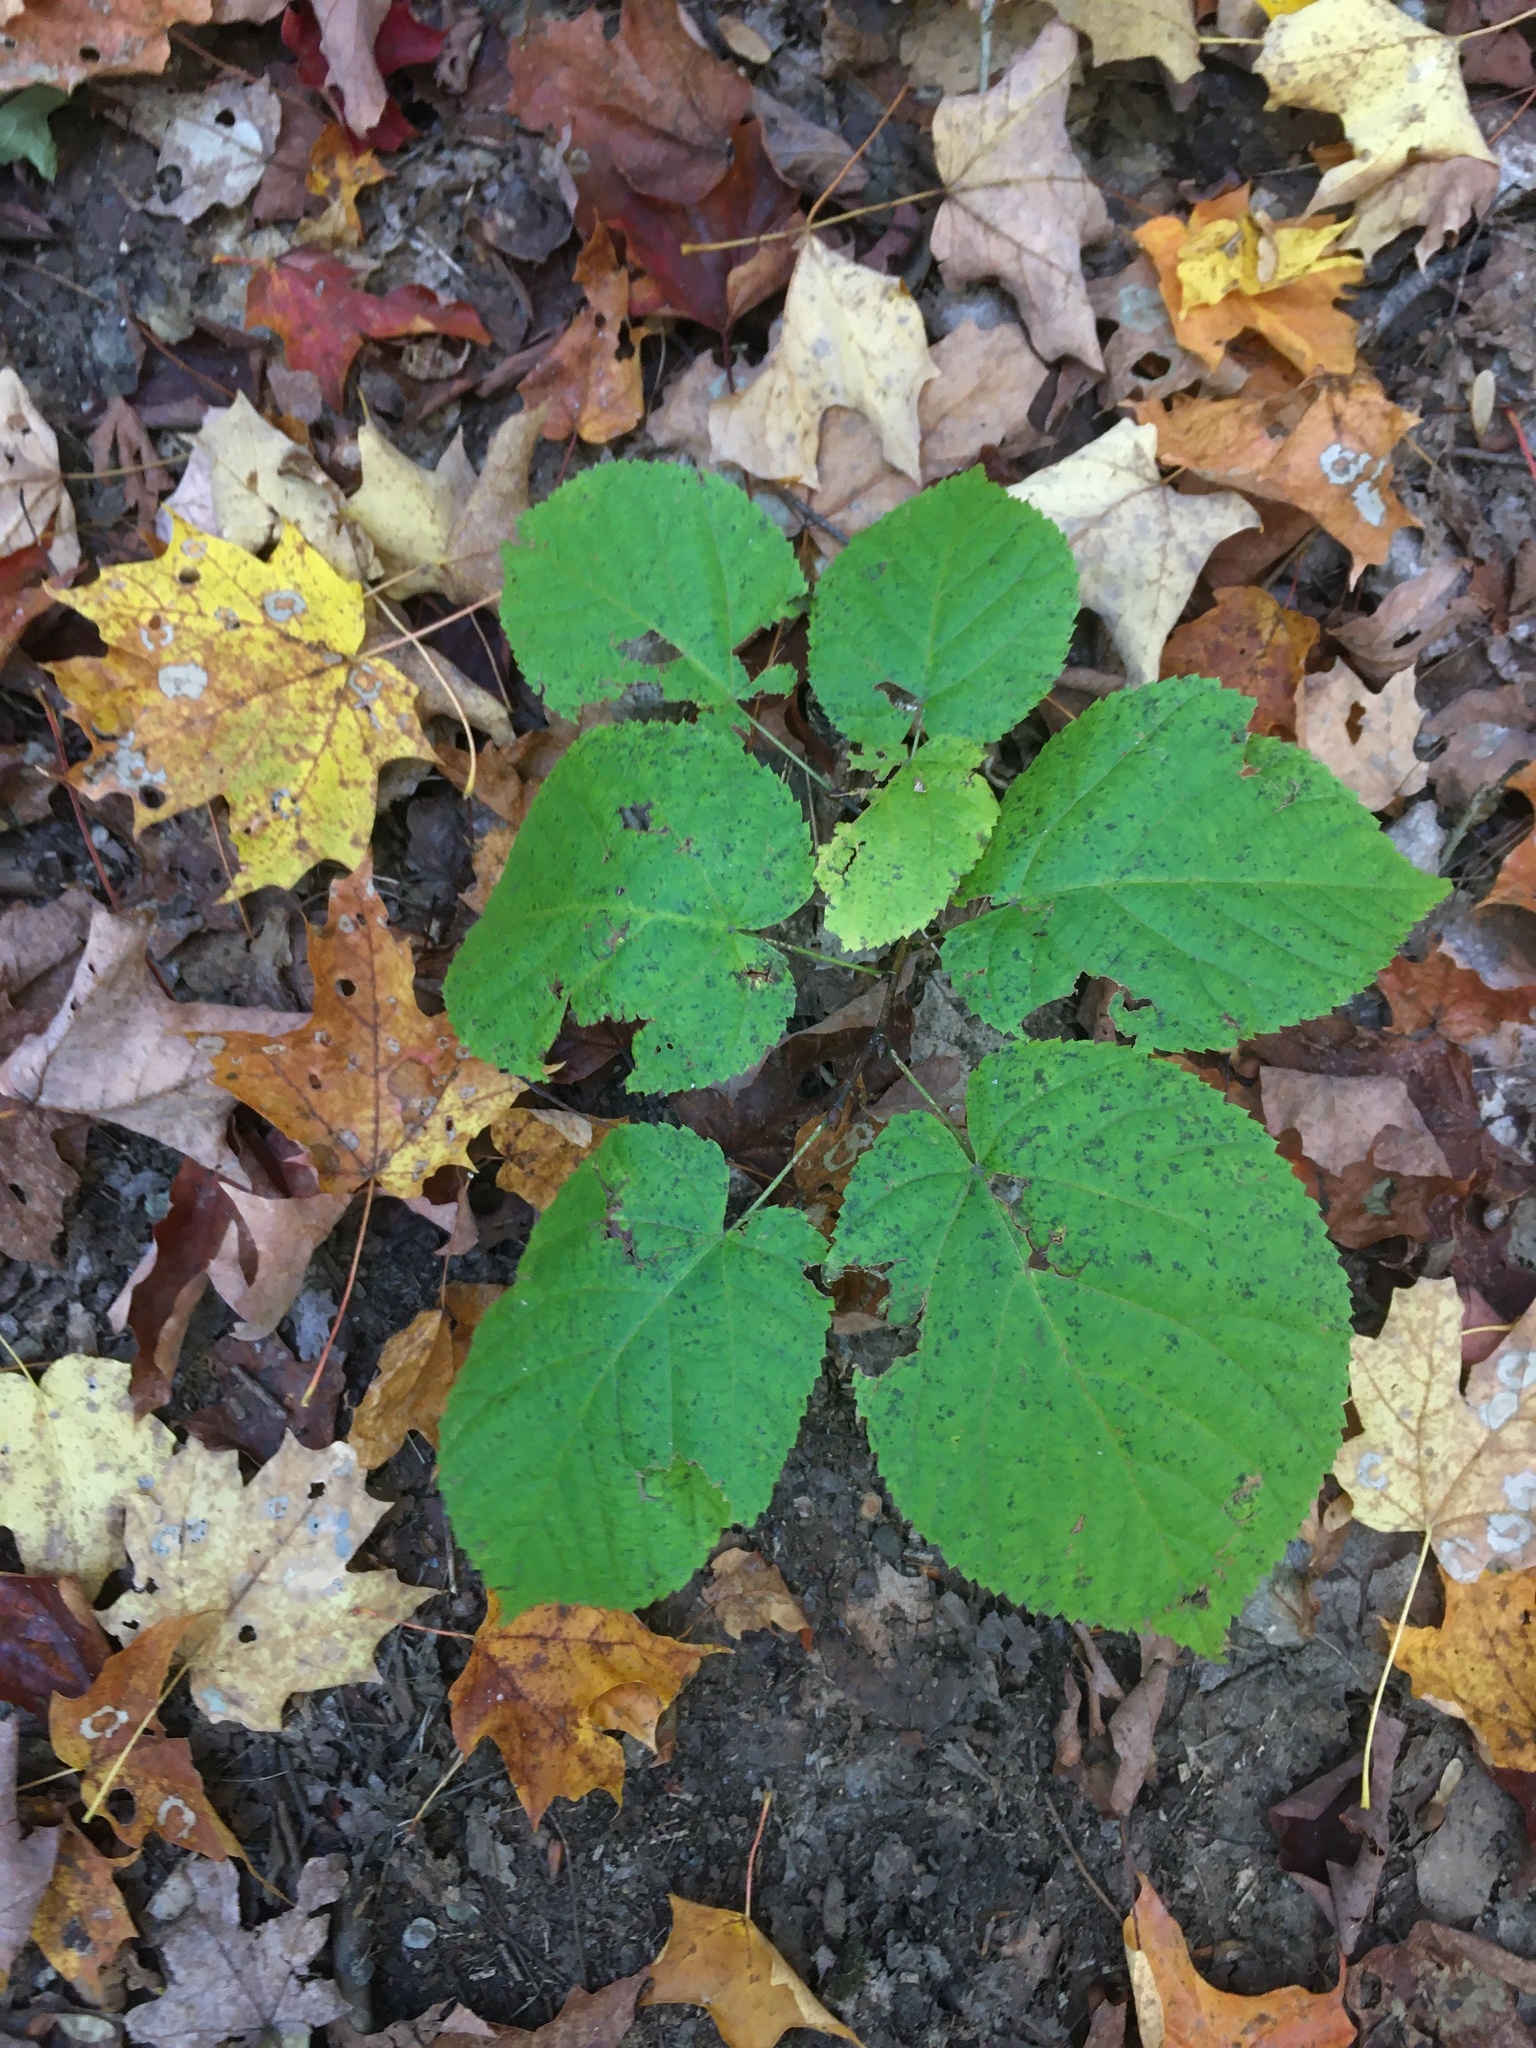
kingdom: Plantae
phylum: Tracheophyta
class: Magnoliopsida
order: Malvales
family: Malvaceae
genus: Tilia
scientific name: Tilia americana
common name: Basswood
